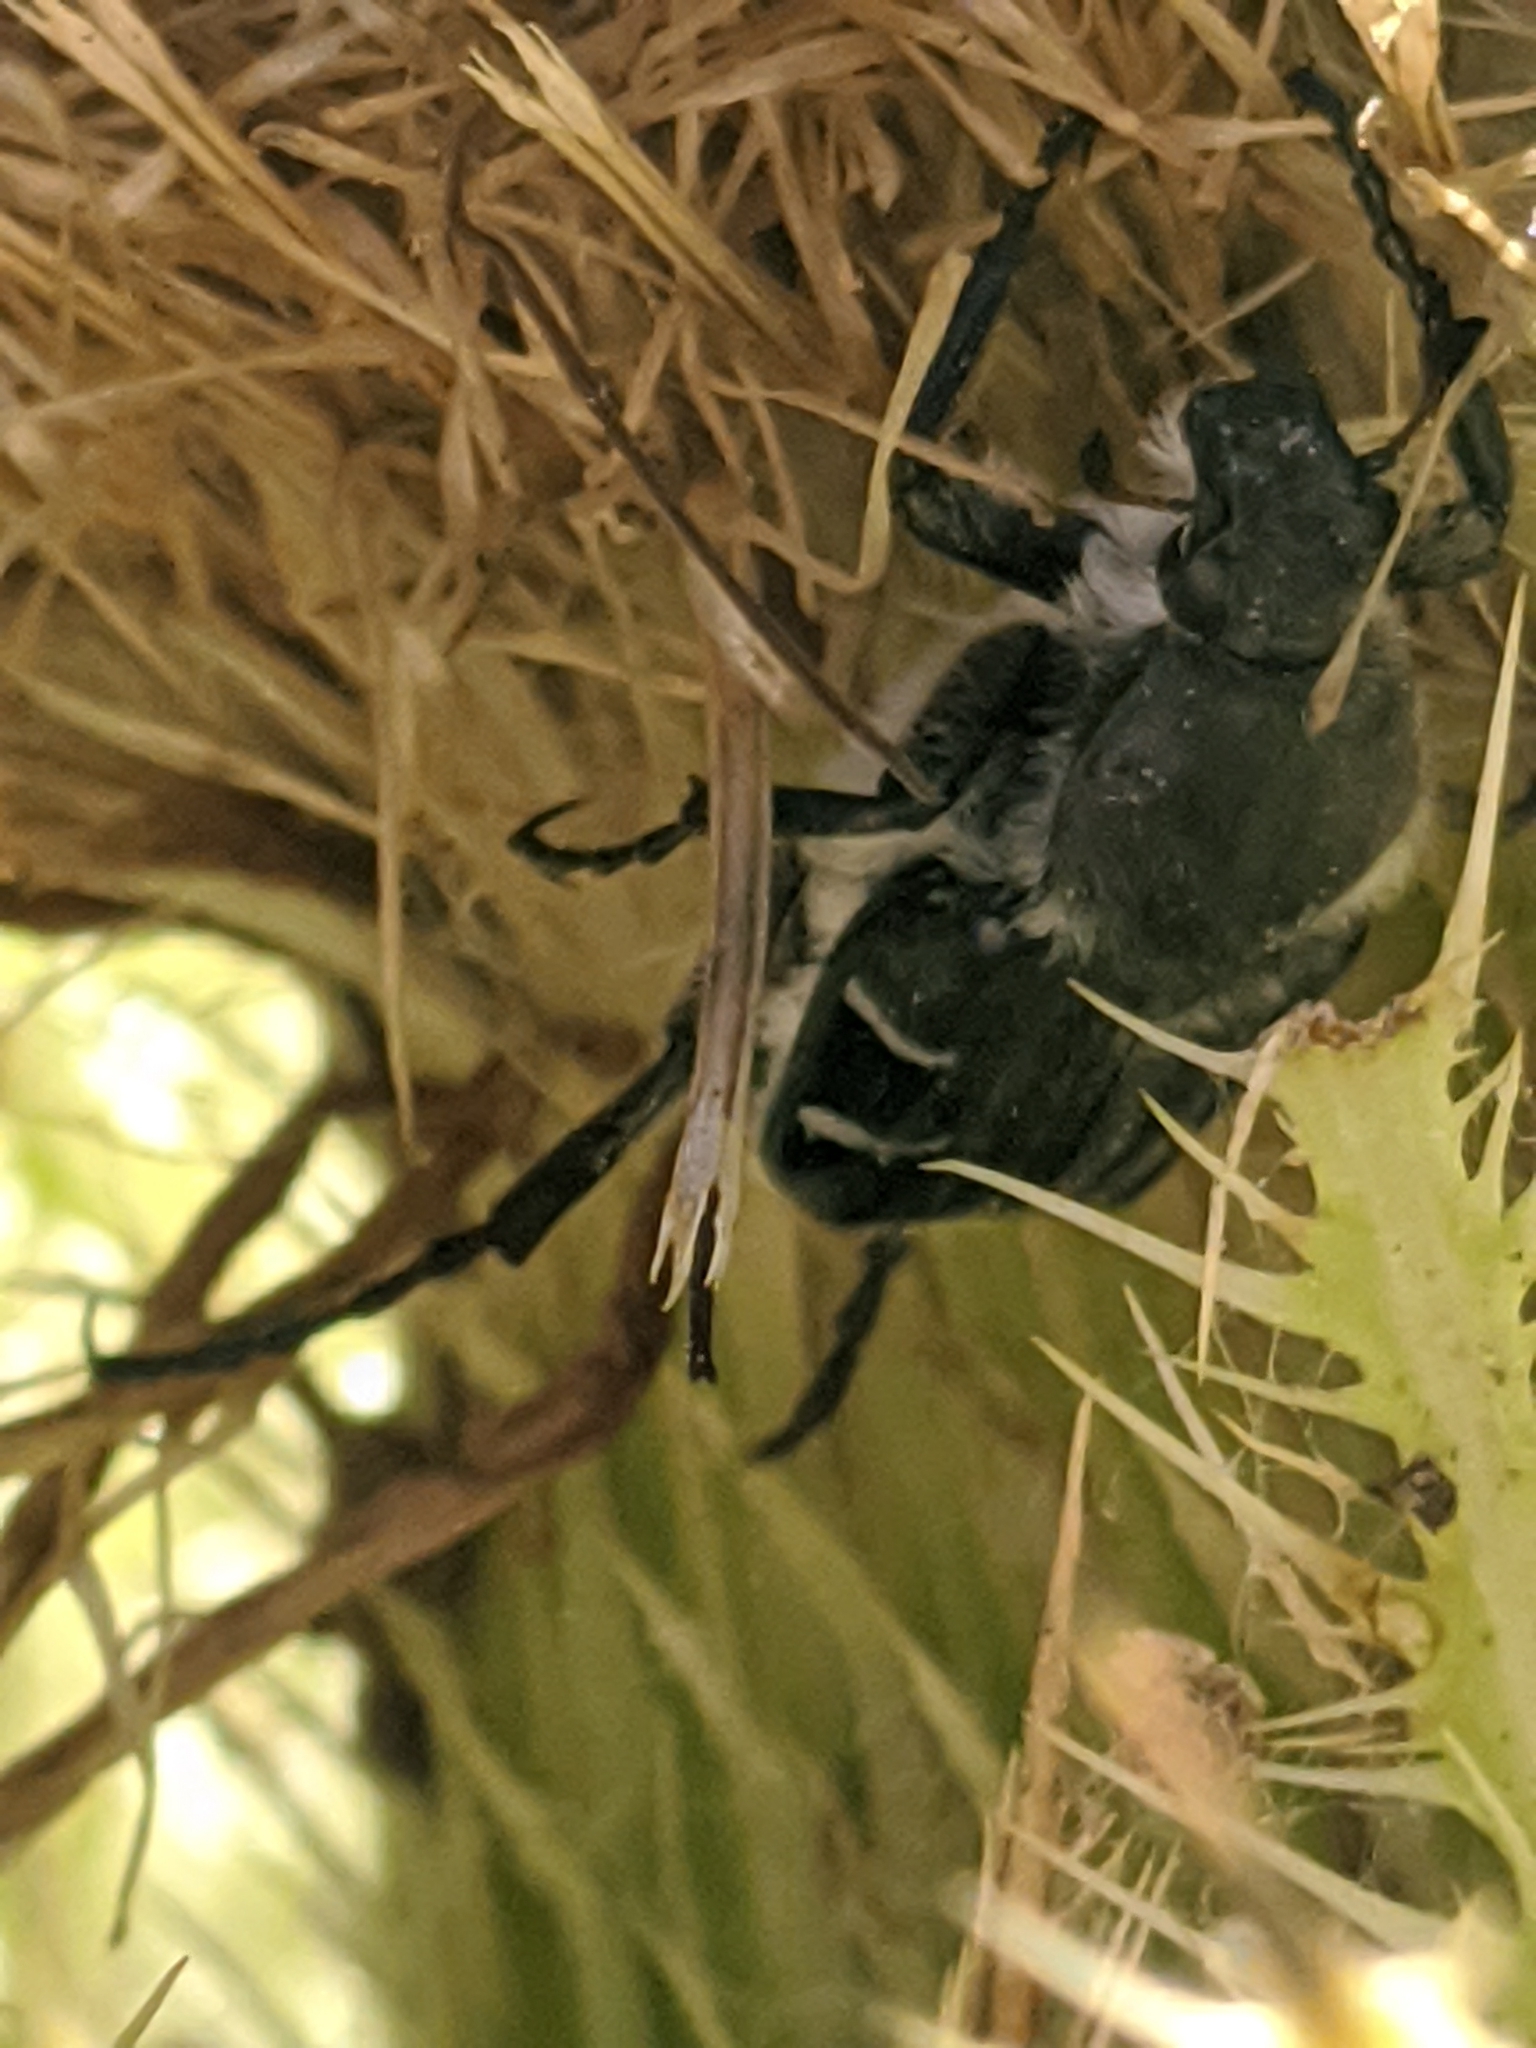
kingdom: Animalia
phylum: Arthropoda
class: Insecta
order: Coleoptera
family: Scarabaeidae
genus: Trichiotinus
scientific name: Trichiotinus texanus
